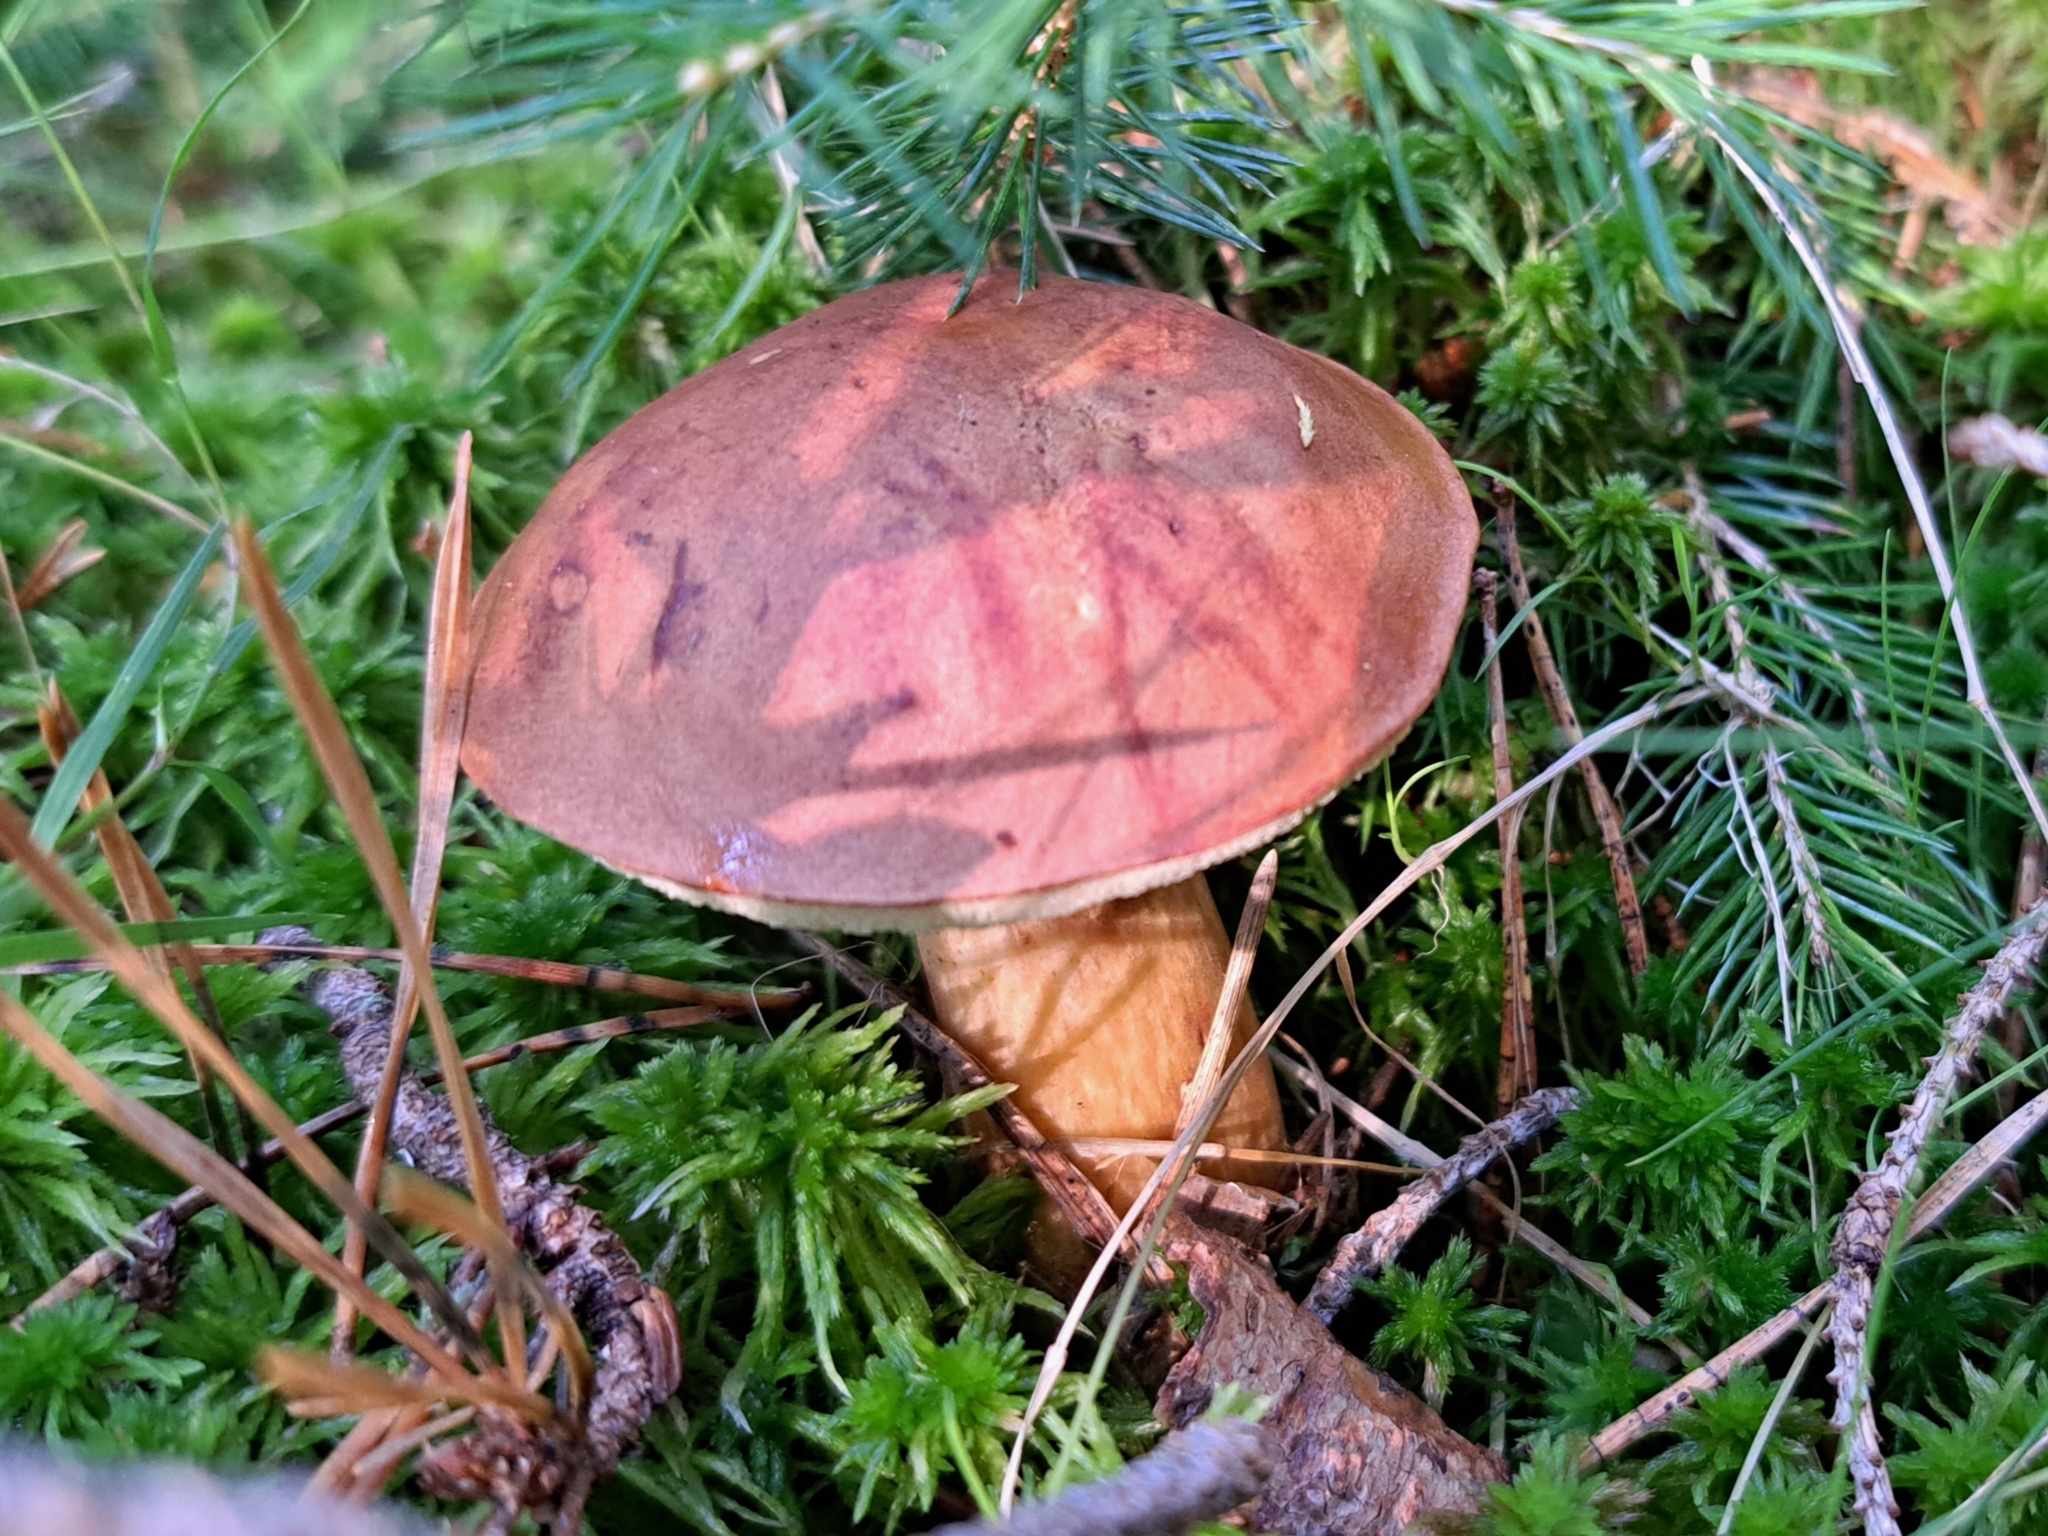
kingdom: Fungi
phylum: Basidiomycota
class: Agaricomycetes
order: Boletales
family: Boletaceae
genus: Imleria
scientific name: Imleria badia
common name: Bay bolete
